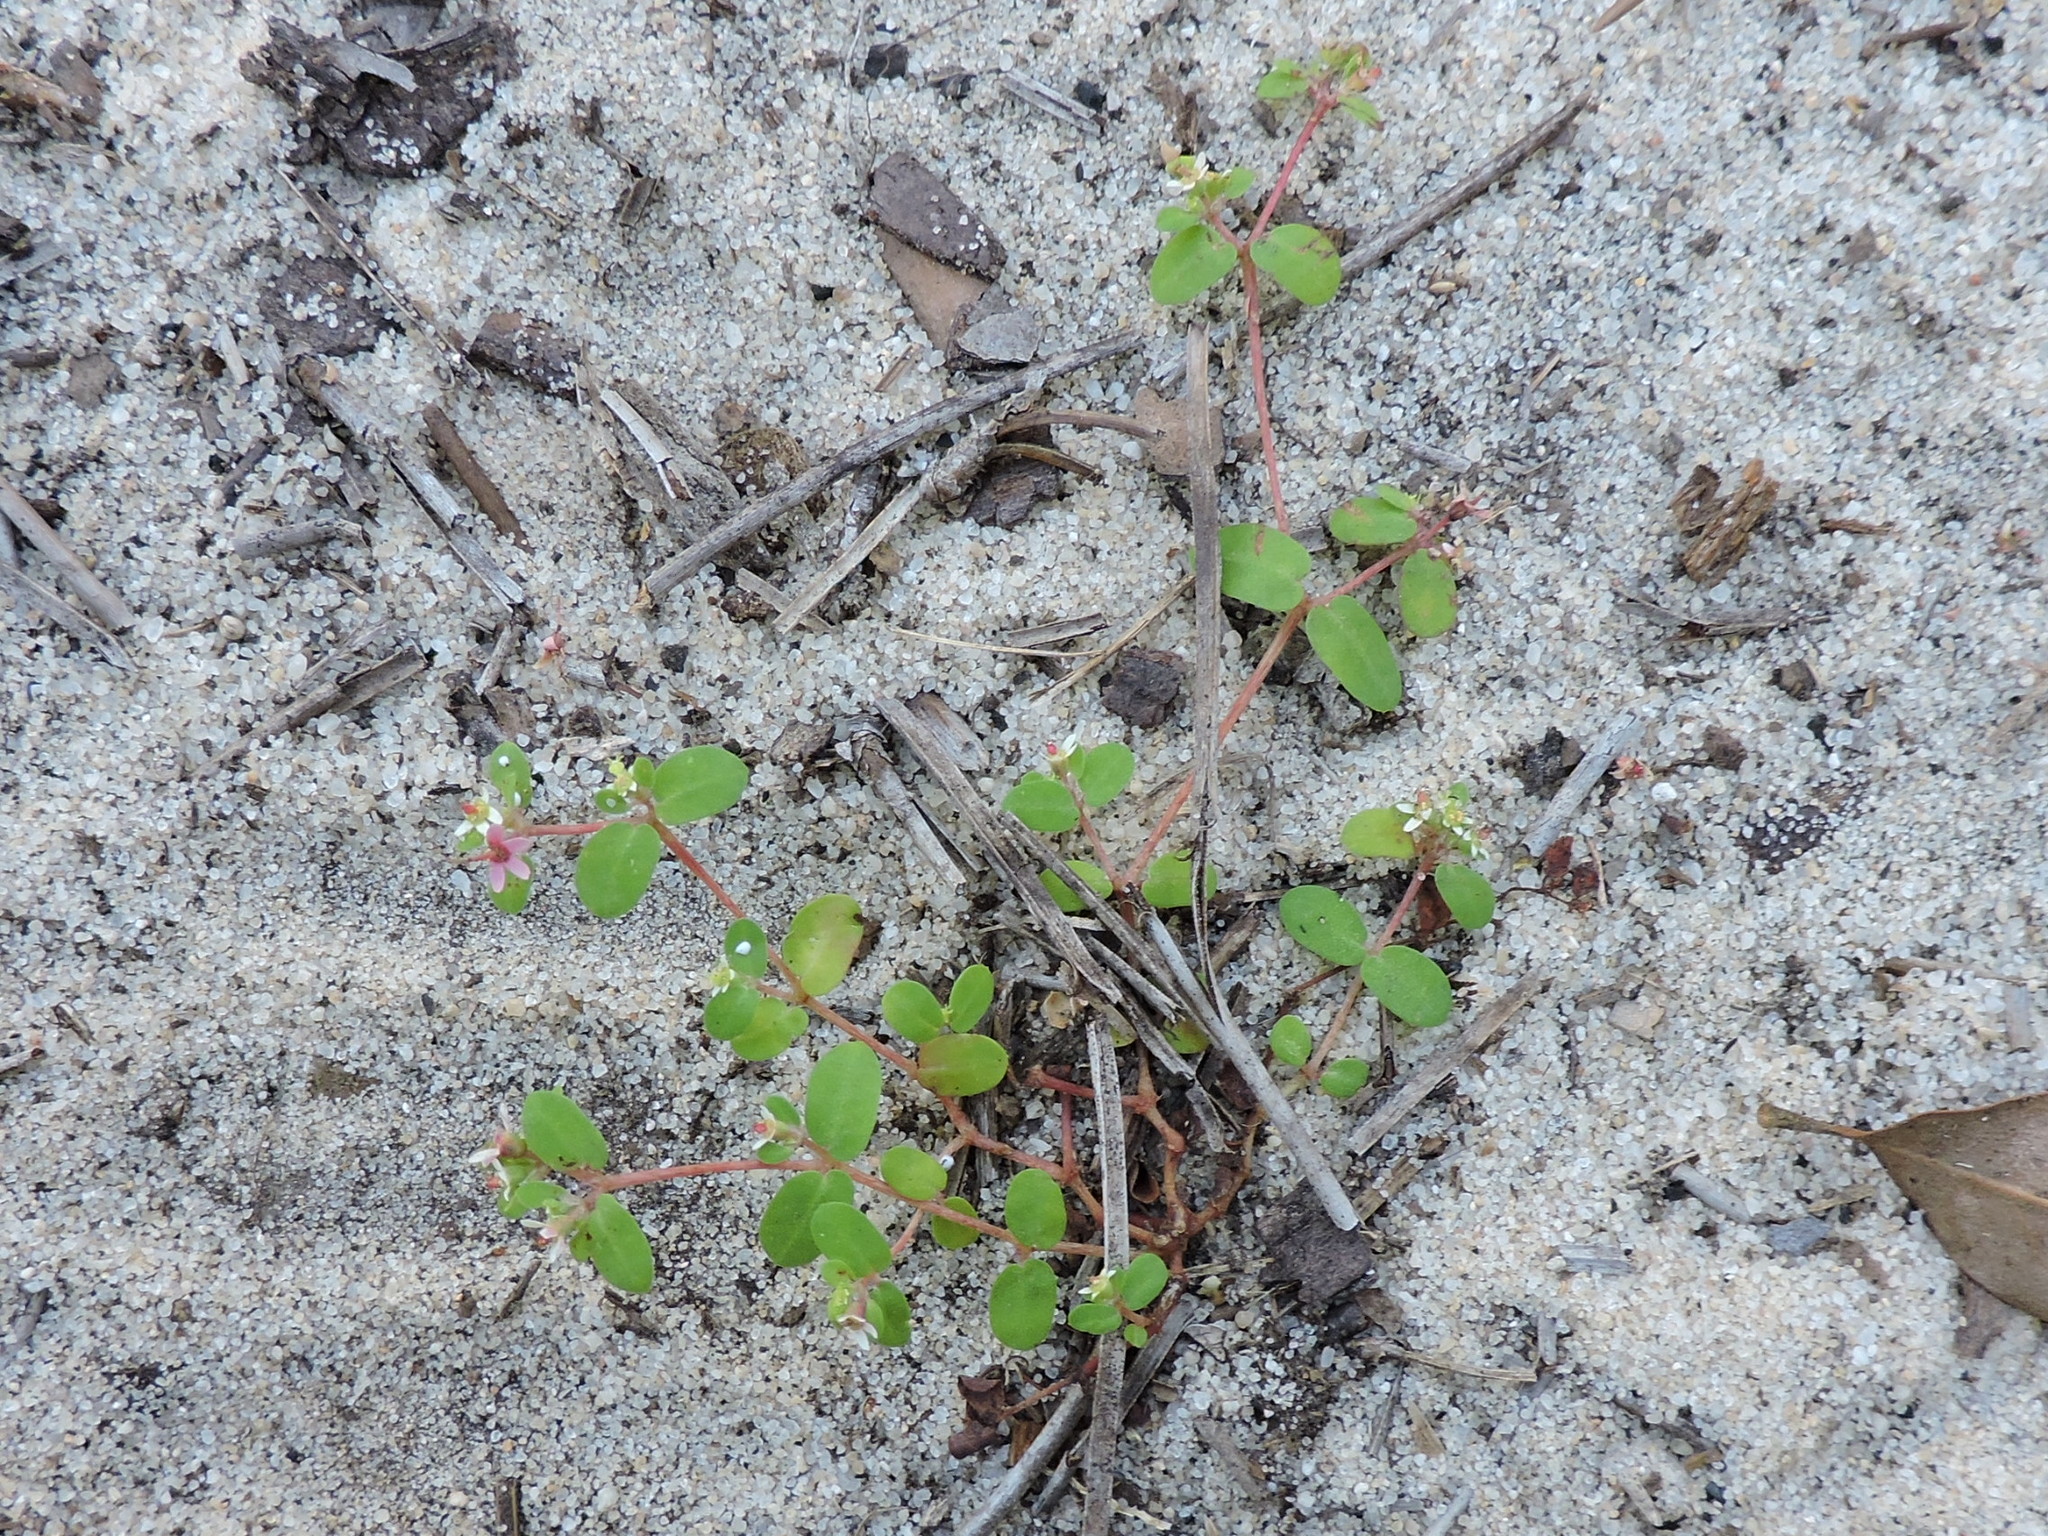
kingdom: Plantae
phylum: Tracheophyta
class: Magnoliopsida
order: Malpighiales
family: Euphorbiaceae
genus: Euphorbia
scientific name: Euphorbia cordifolia
